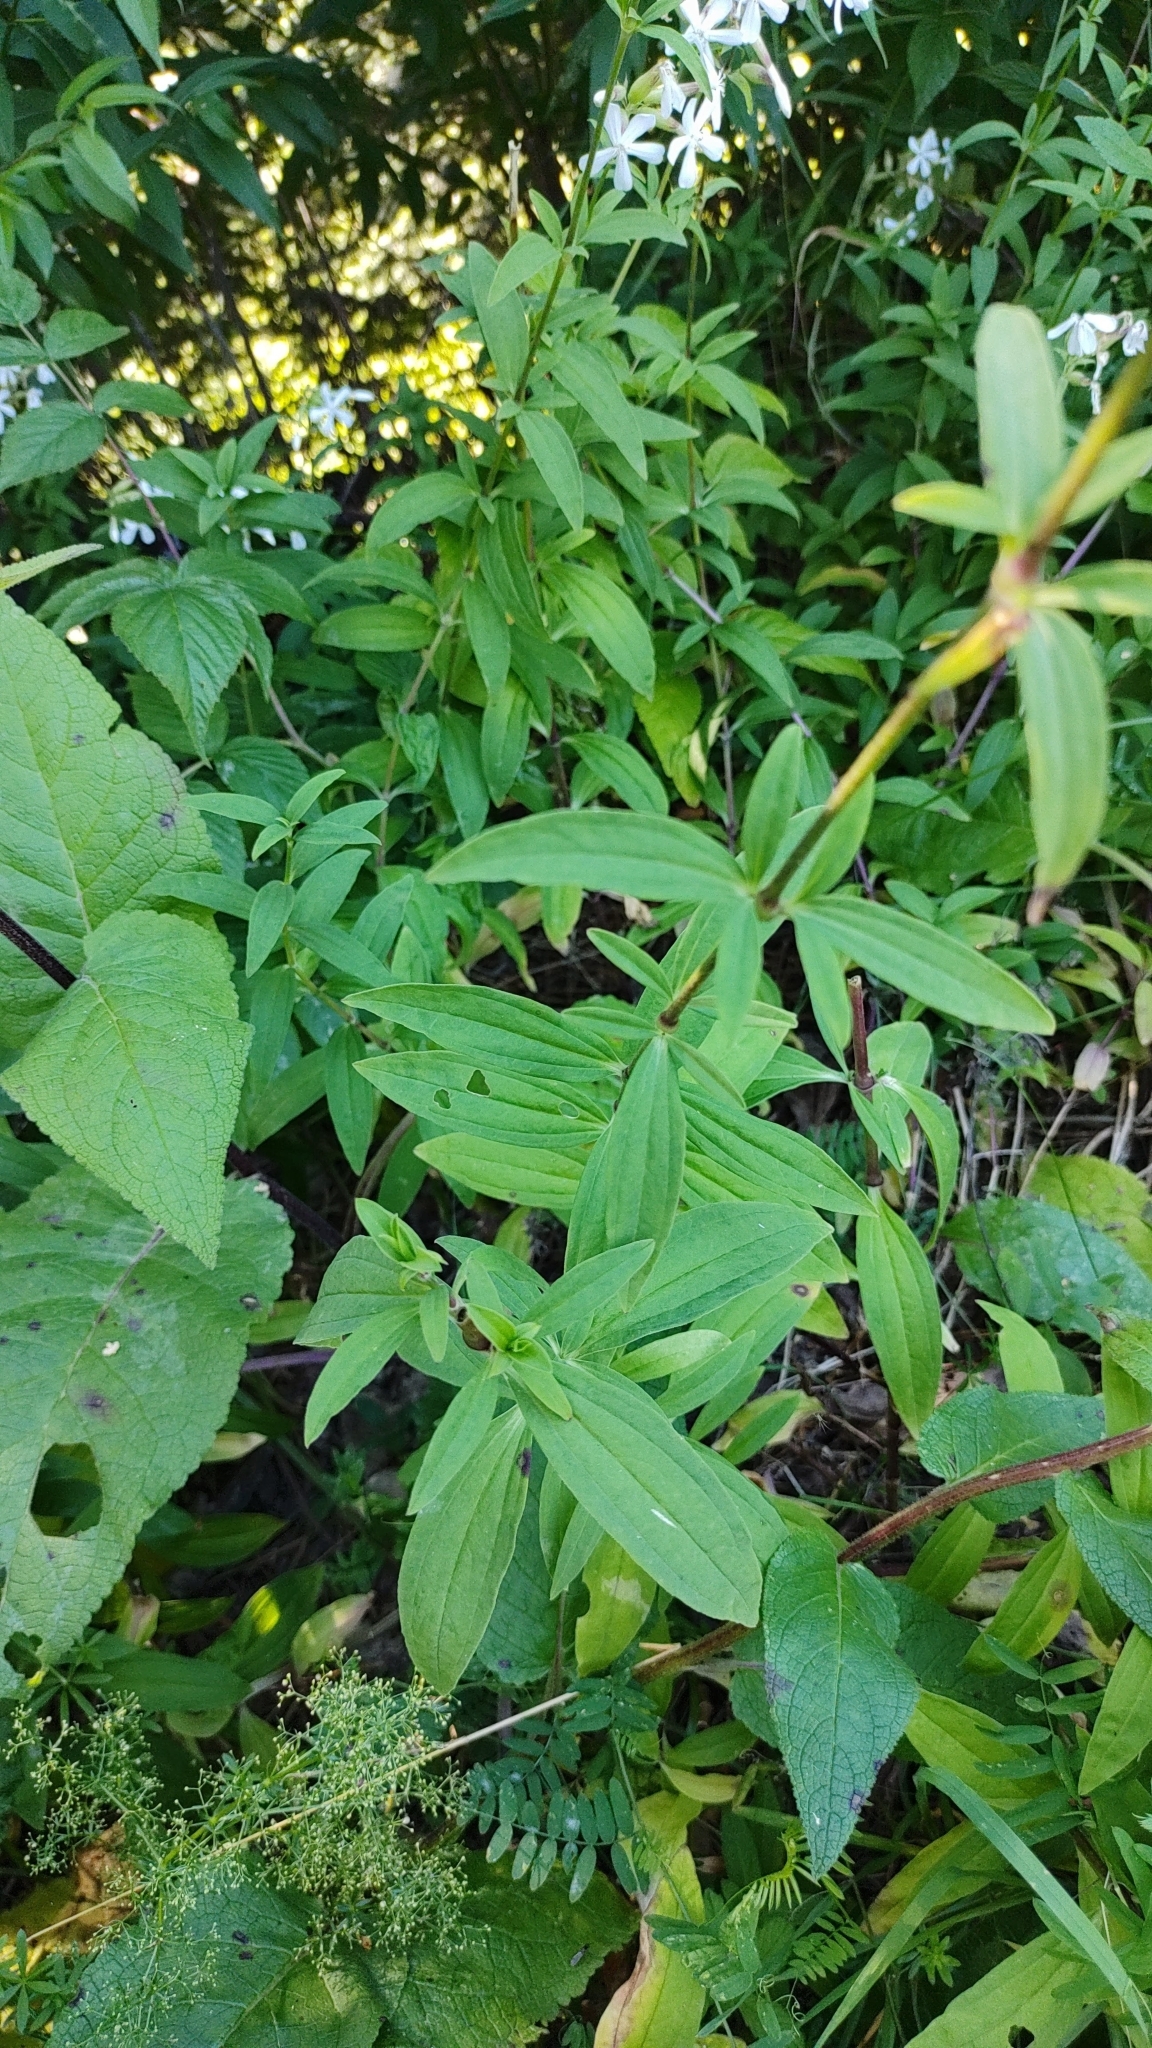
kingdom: Plantae
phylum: Tracheophyta
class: Magnoliopsida
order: Caryophyllales
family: Caryophyllaceae
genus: Saponaria
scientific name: Saponaria officinalis
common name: Soapwort
